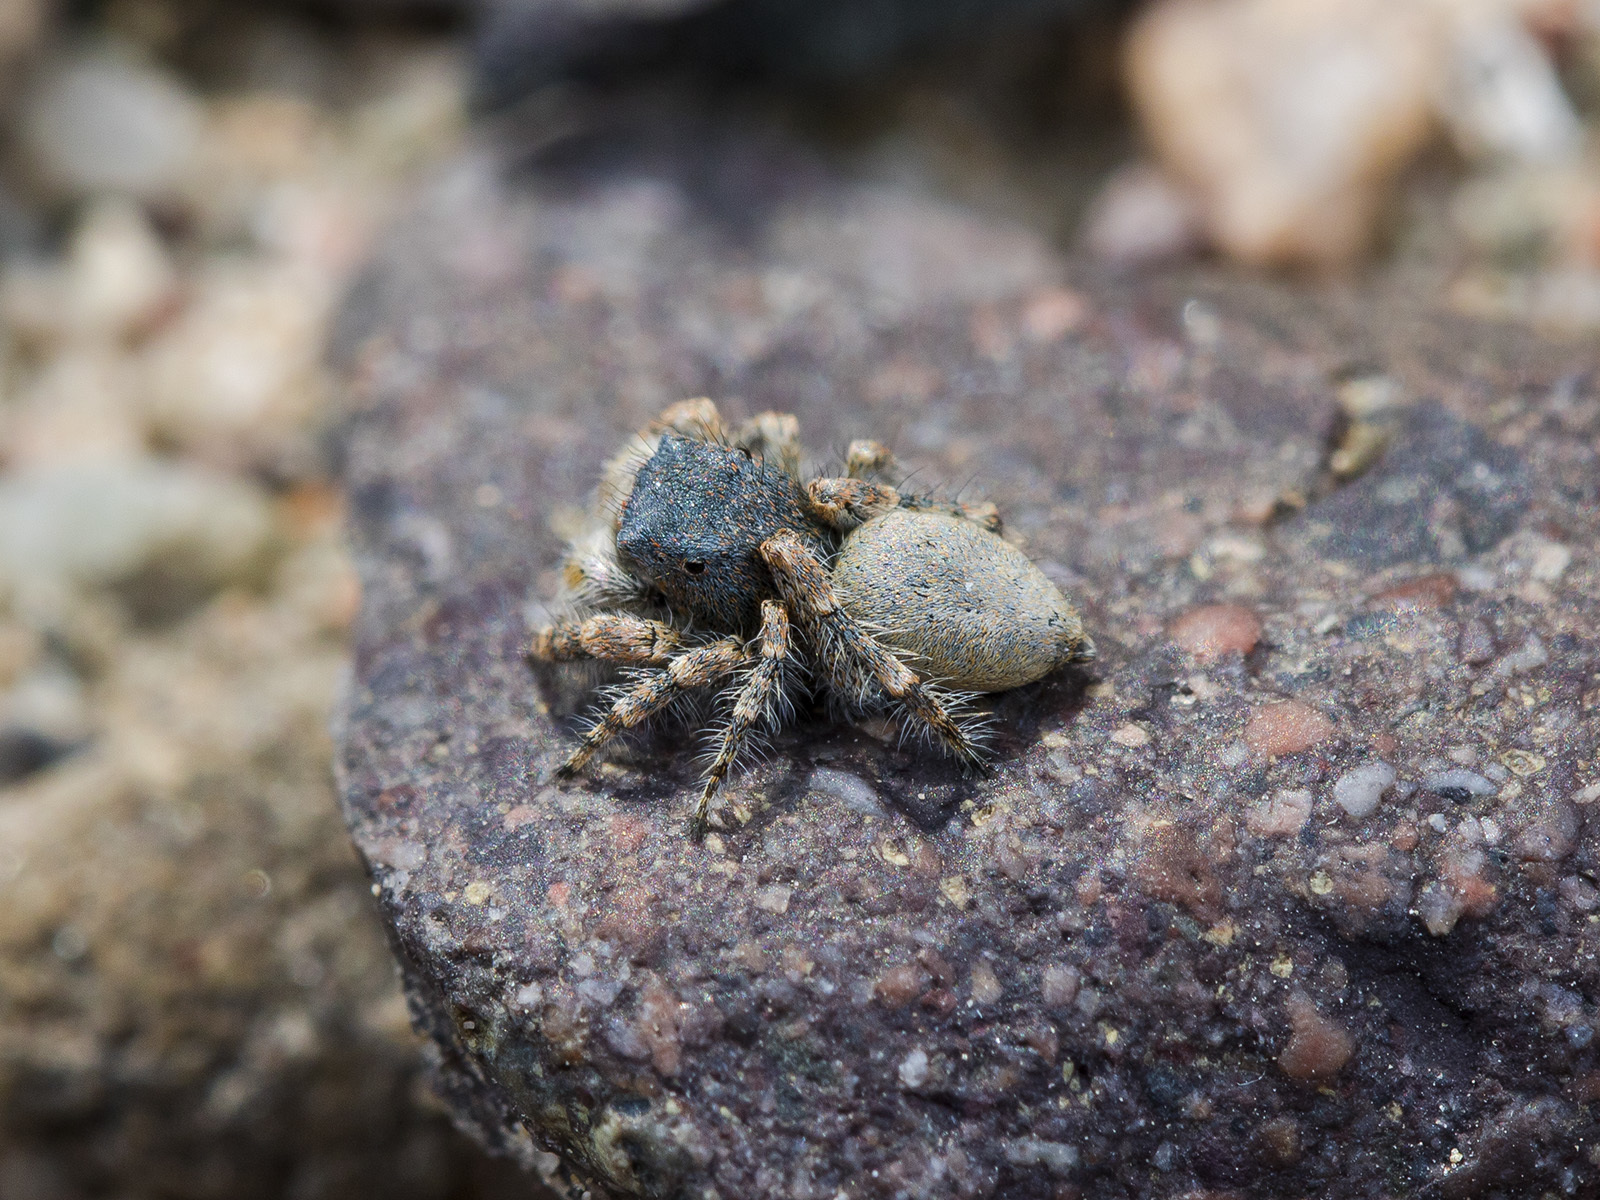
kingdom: Animalia
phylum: Arthropoda
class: Arachnida
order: Araneae
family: Salticidae
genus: Yllenus
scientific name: Yllenus zyuzini
